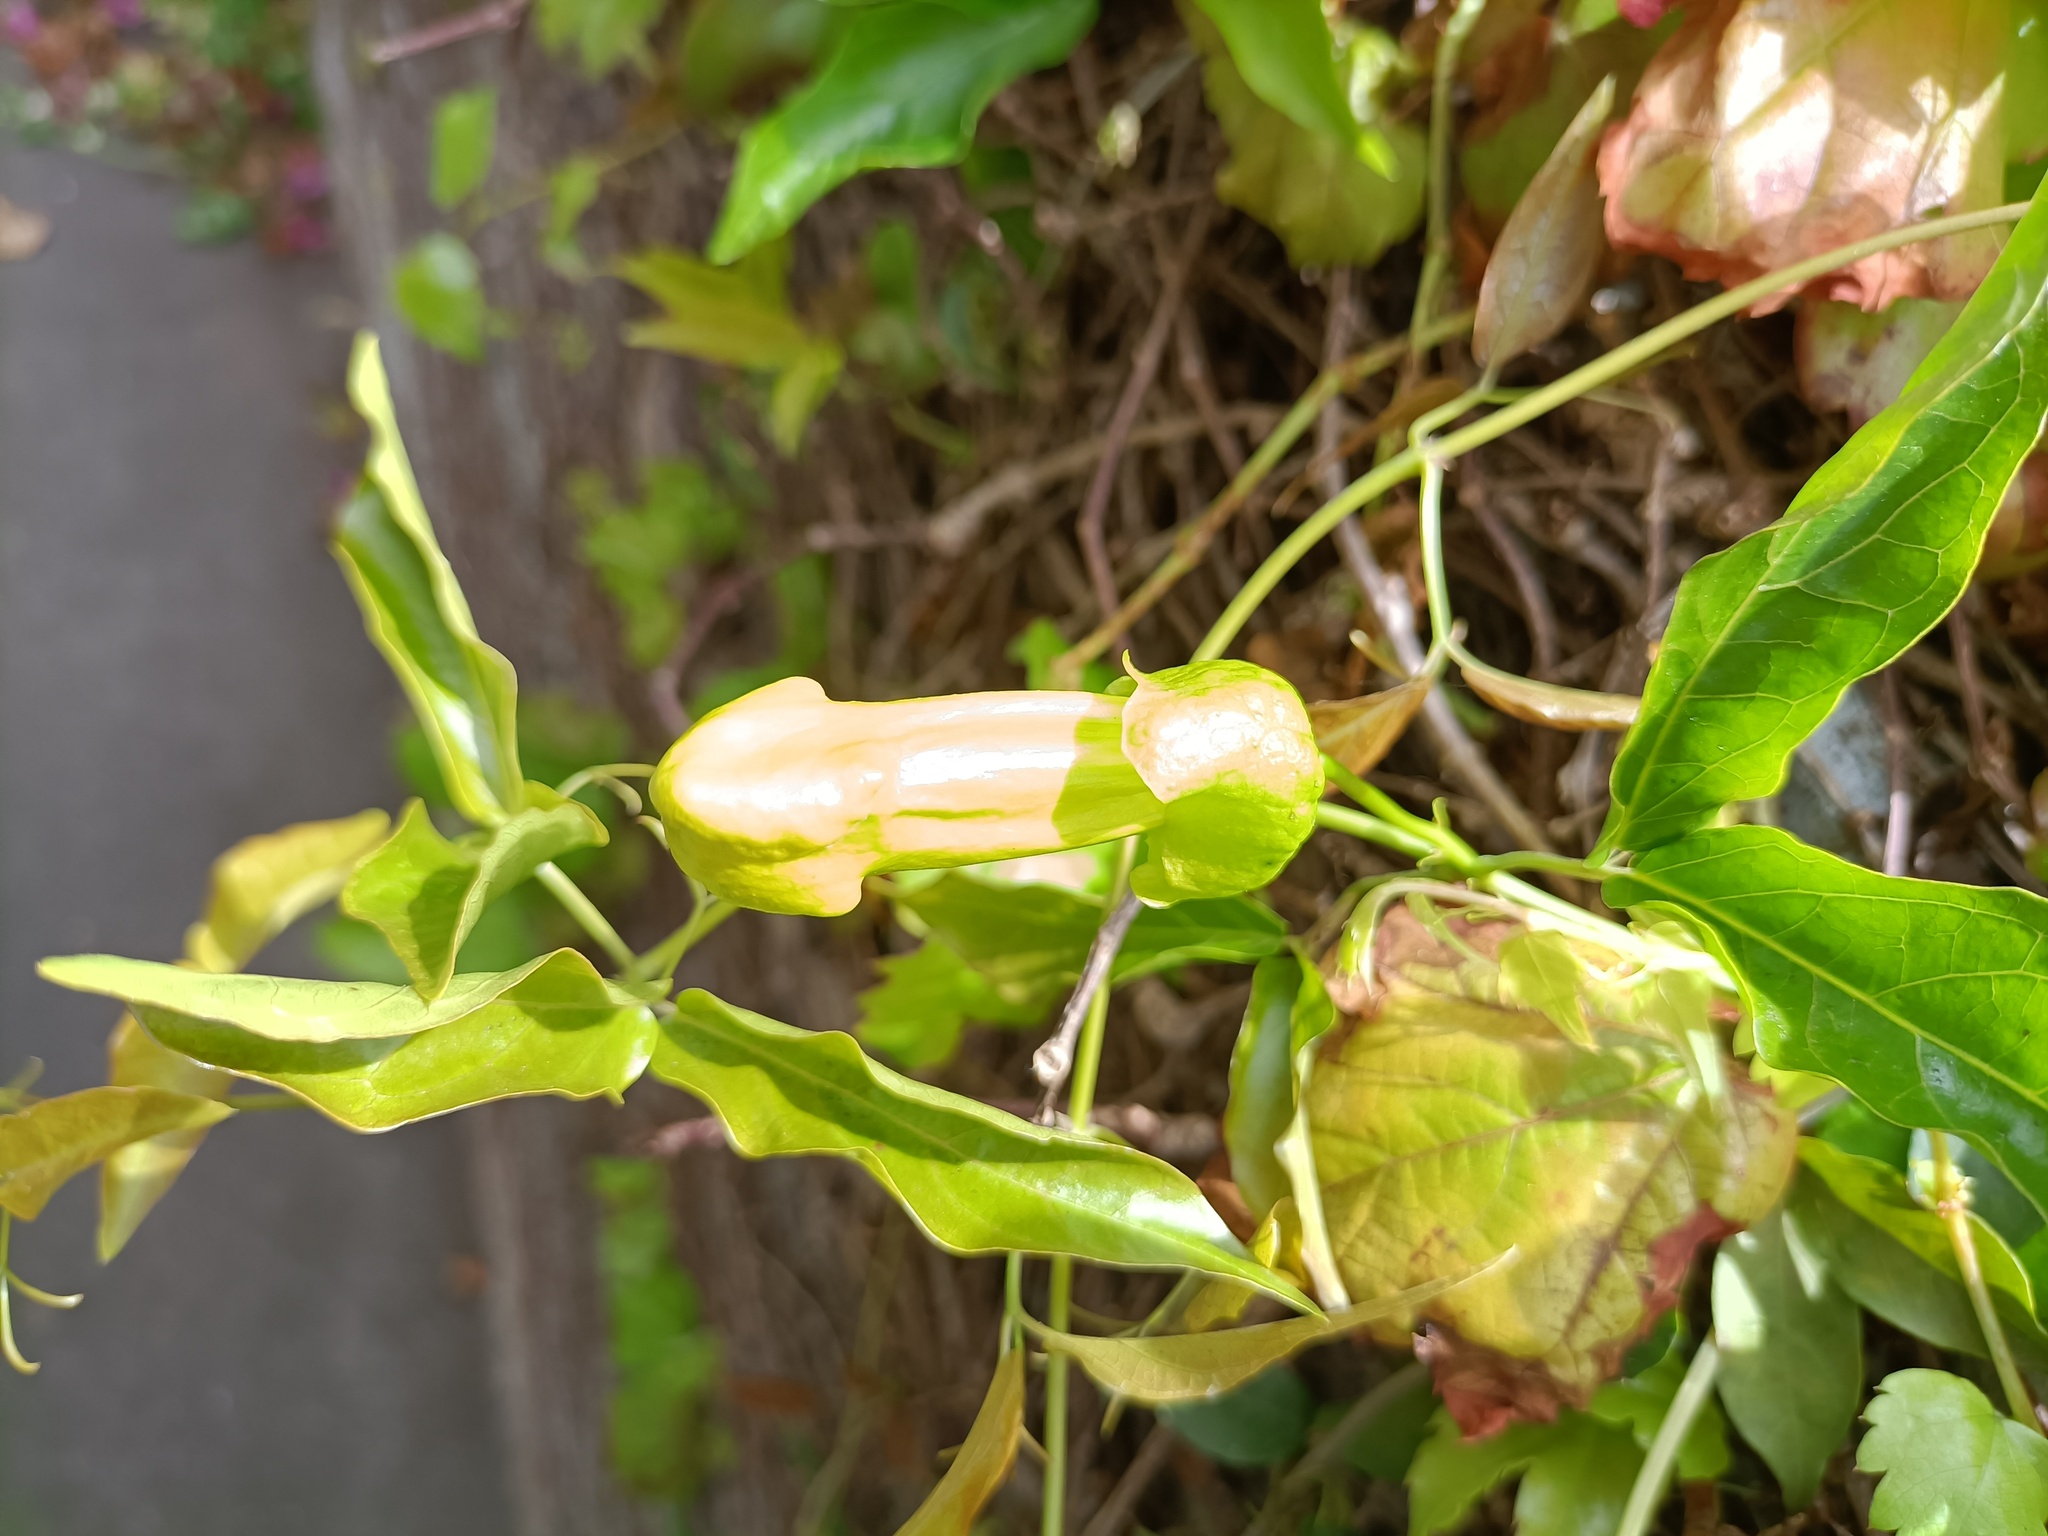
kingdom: Plantae
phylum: Tracheophyta
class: Magnoliopsida
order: Lamiales
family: Bignoniaceae
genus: Dolichandra
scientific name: Dolichandra unguis-cati
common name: Catclaw vine
